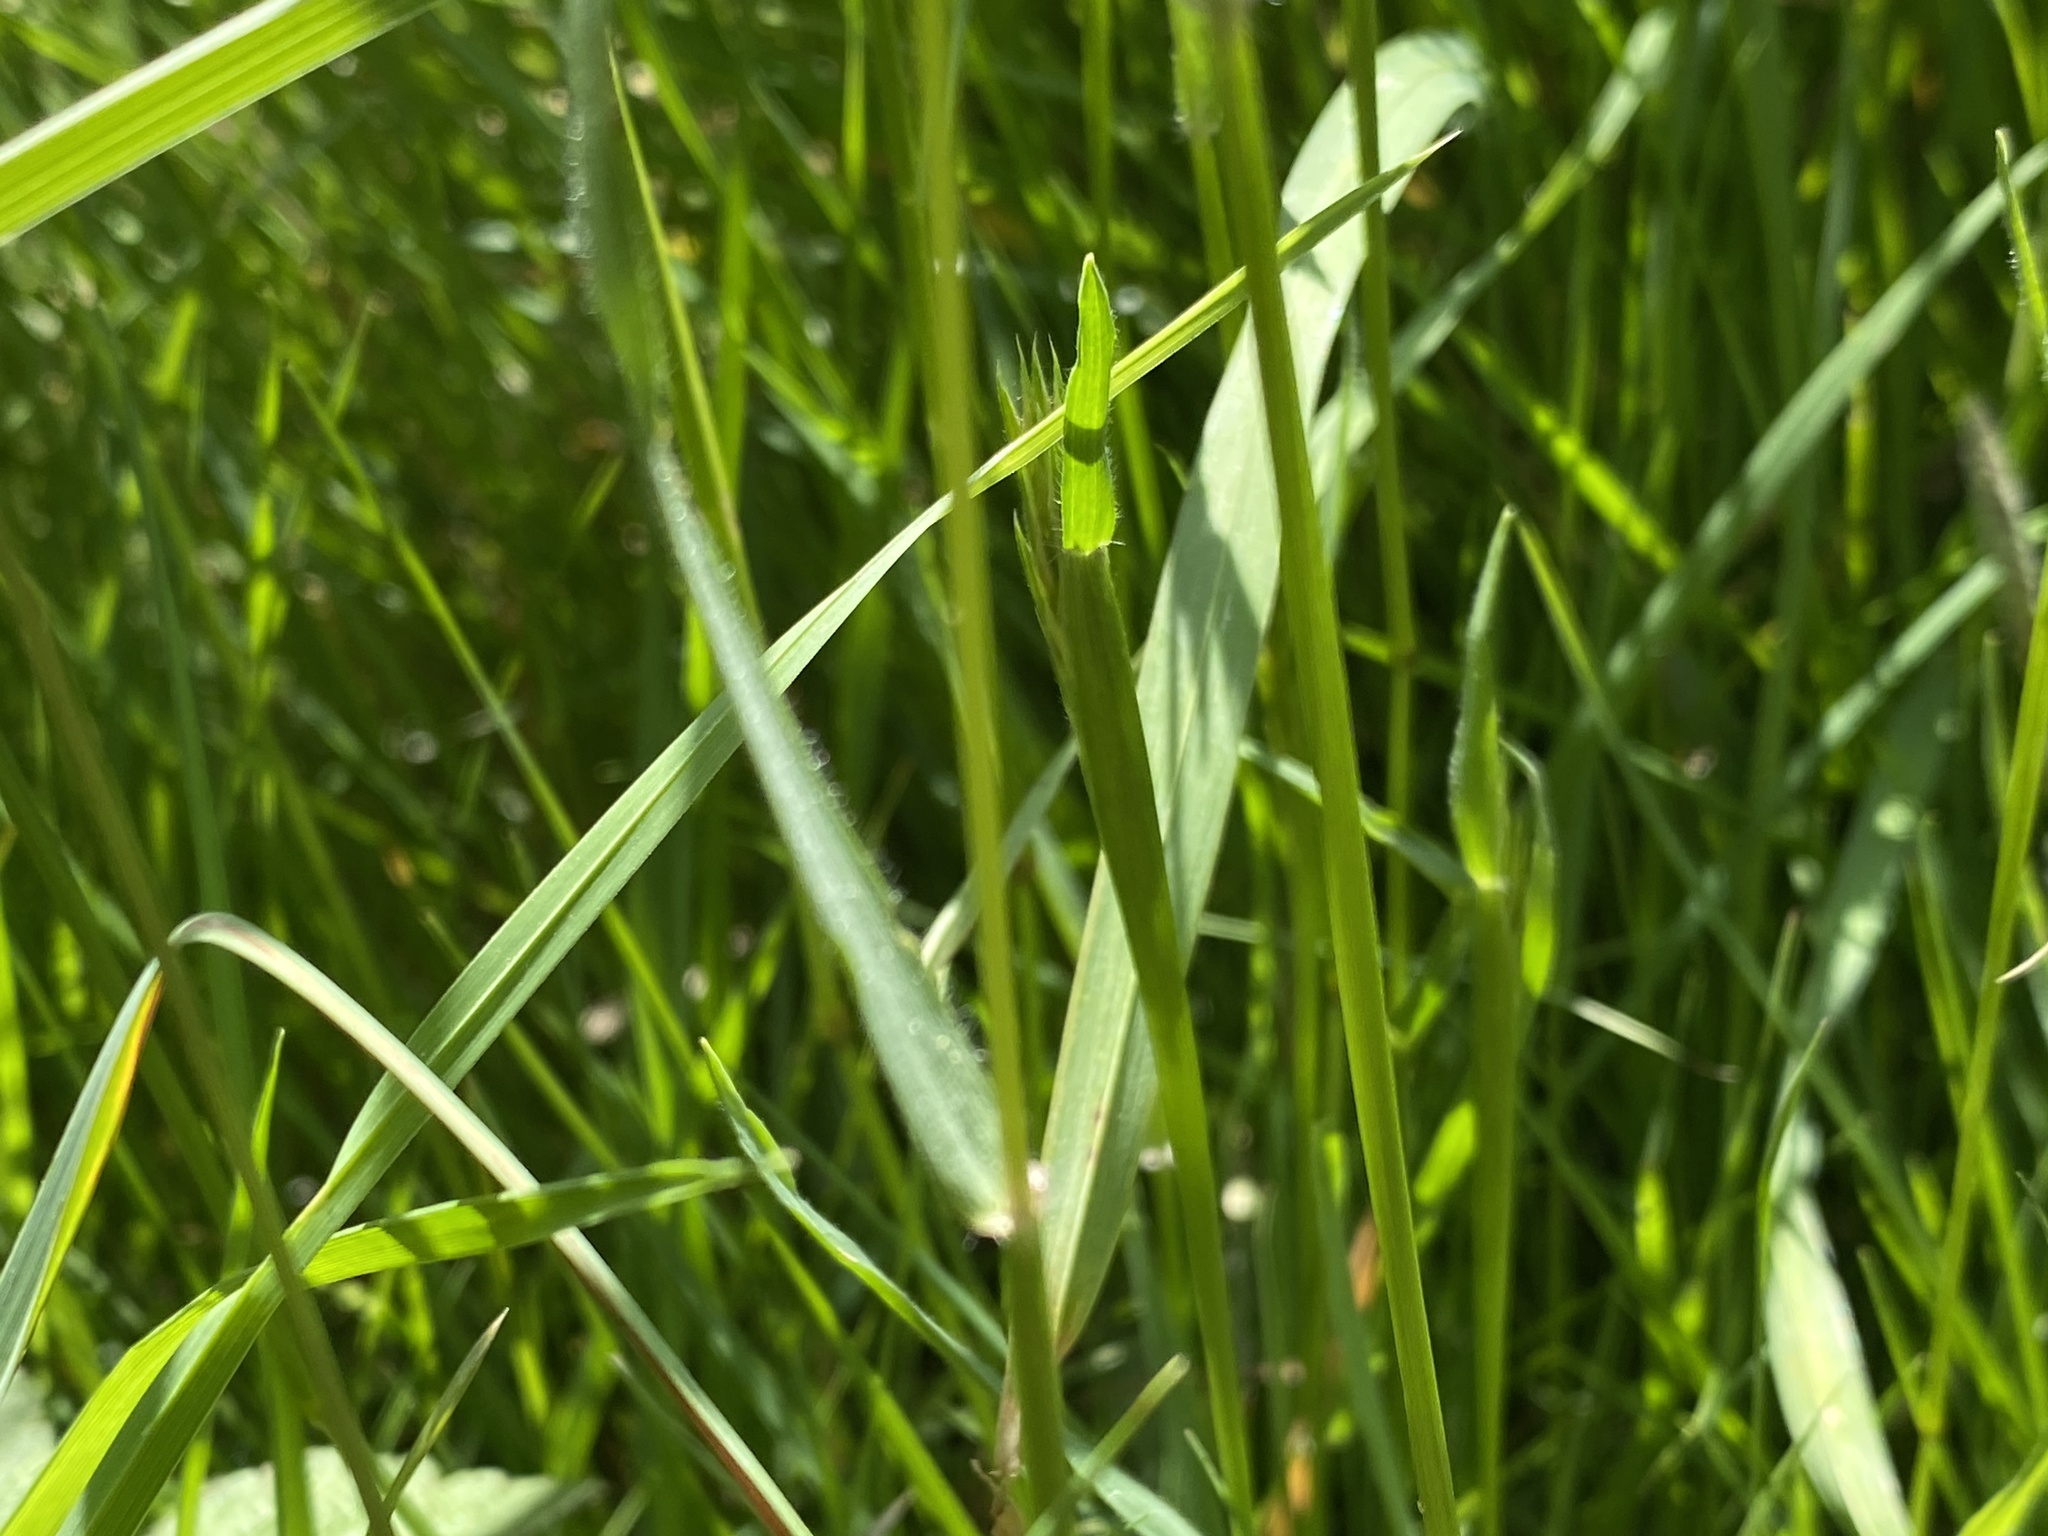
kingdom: Plantae
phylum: Tracheophyta
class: Liliopsida
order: Poales
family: Poaceae
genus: Anthoxanthum
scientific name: Anthoxanthum odoratum
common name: Sweet vernalgrass
